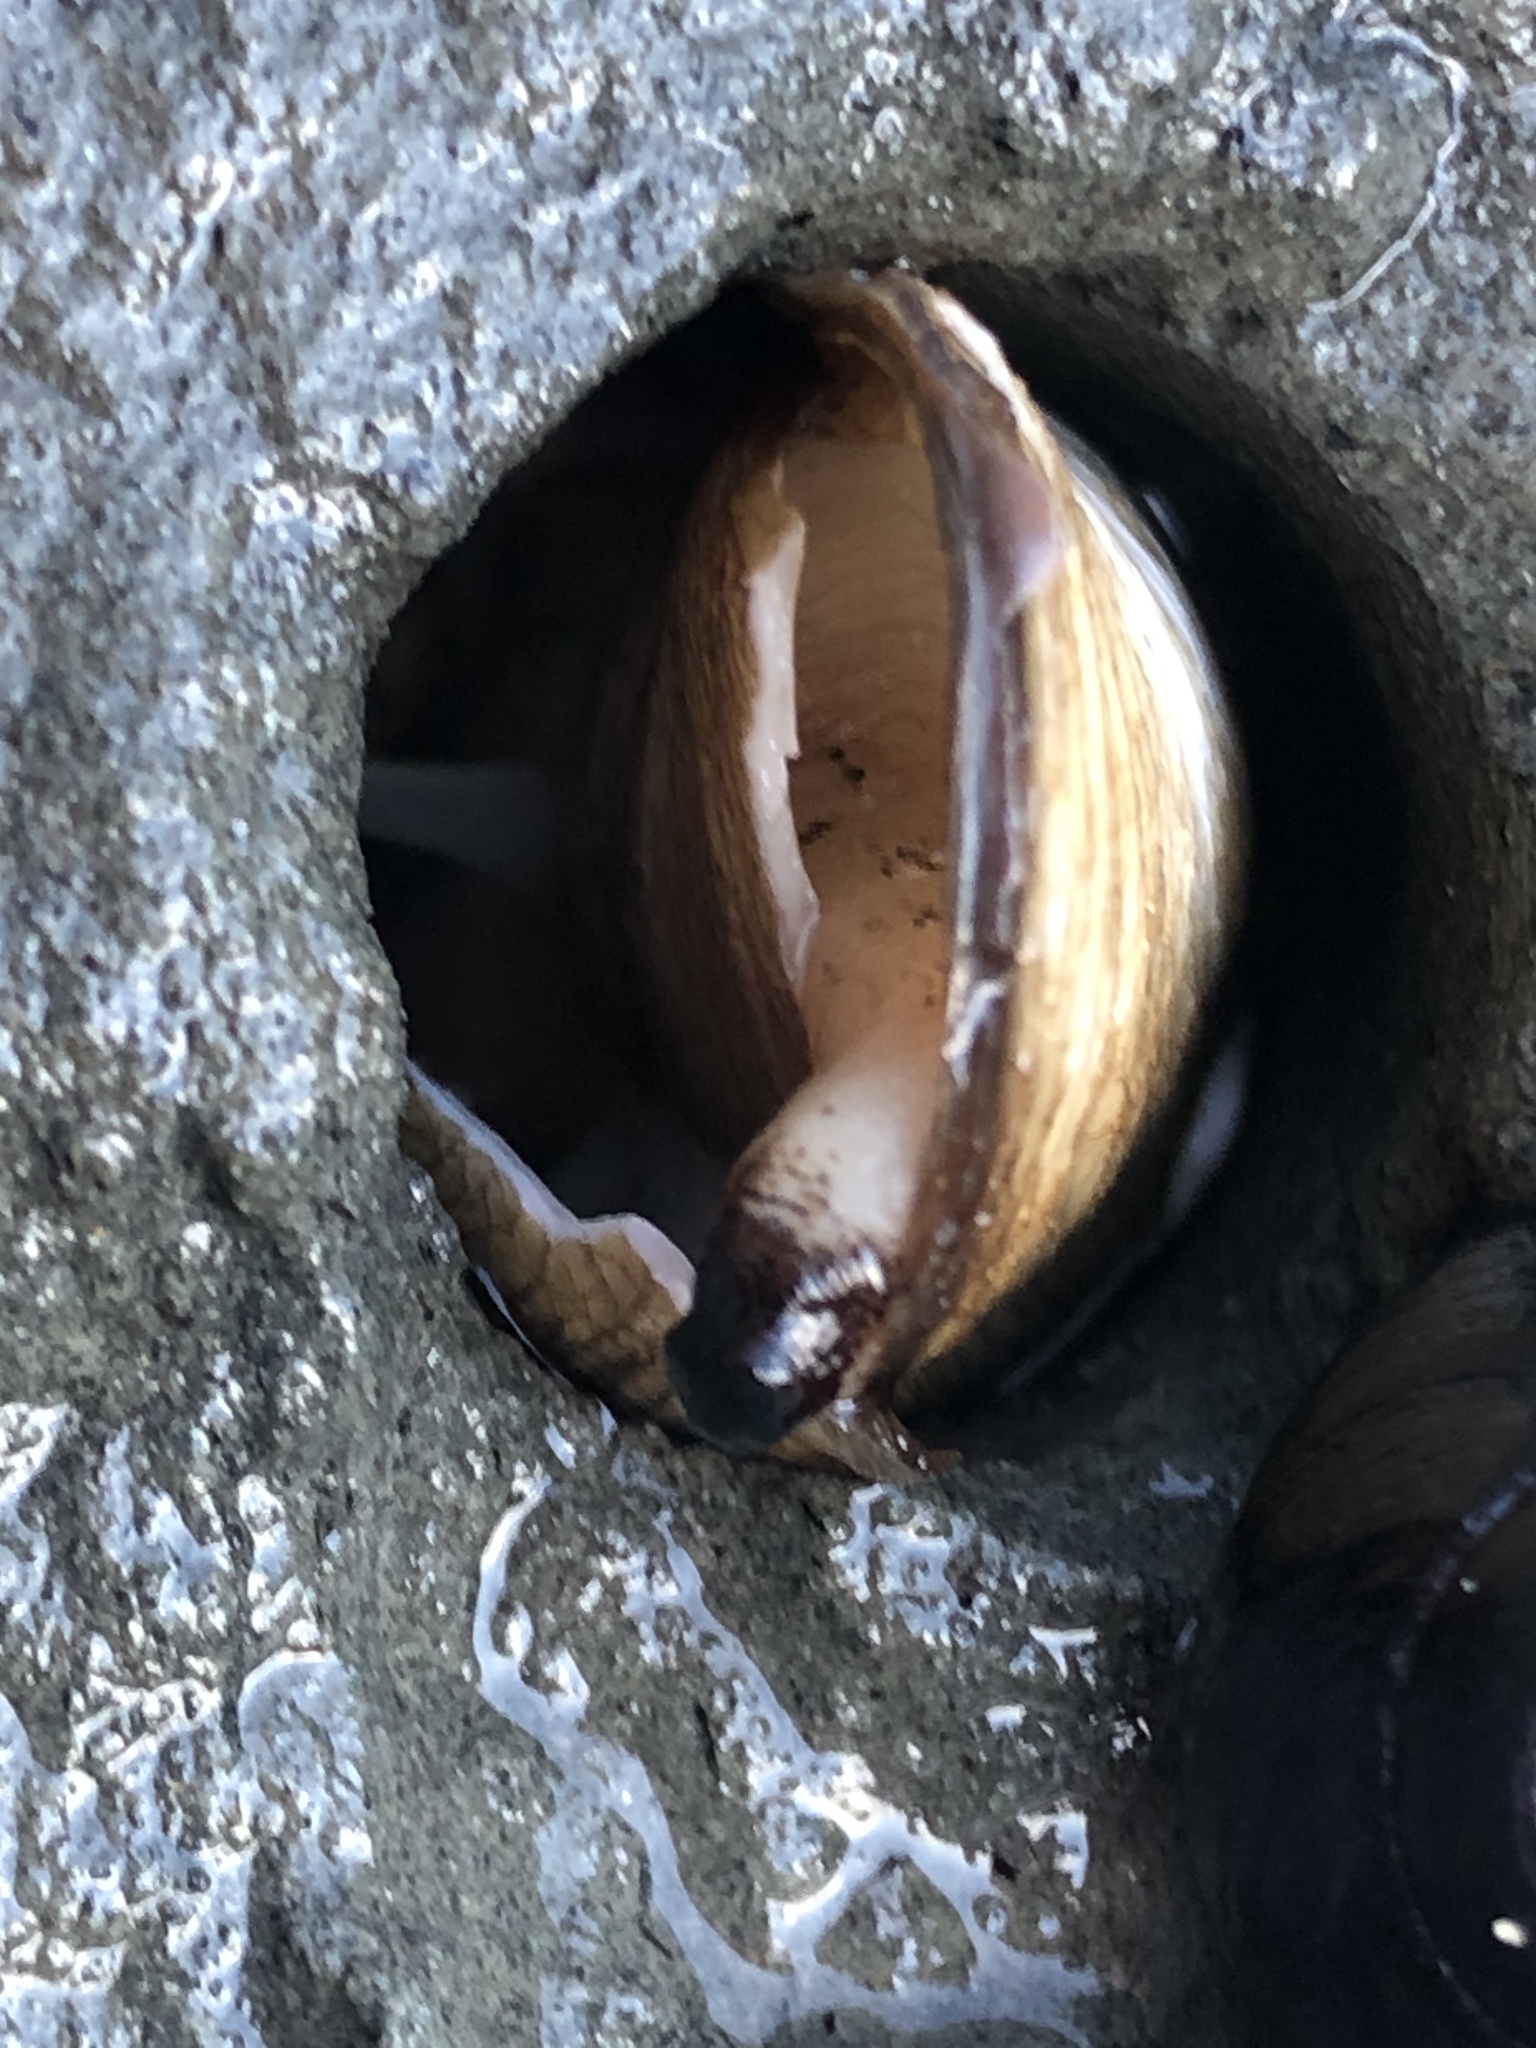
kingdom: Animalia
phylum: Mollusca
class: Bivalvia
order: Myida
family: Pholadidae
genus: Penitella
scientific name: Penitella penita
